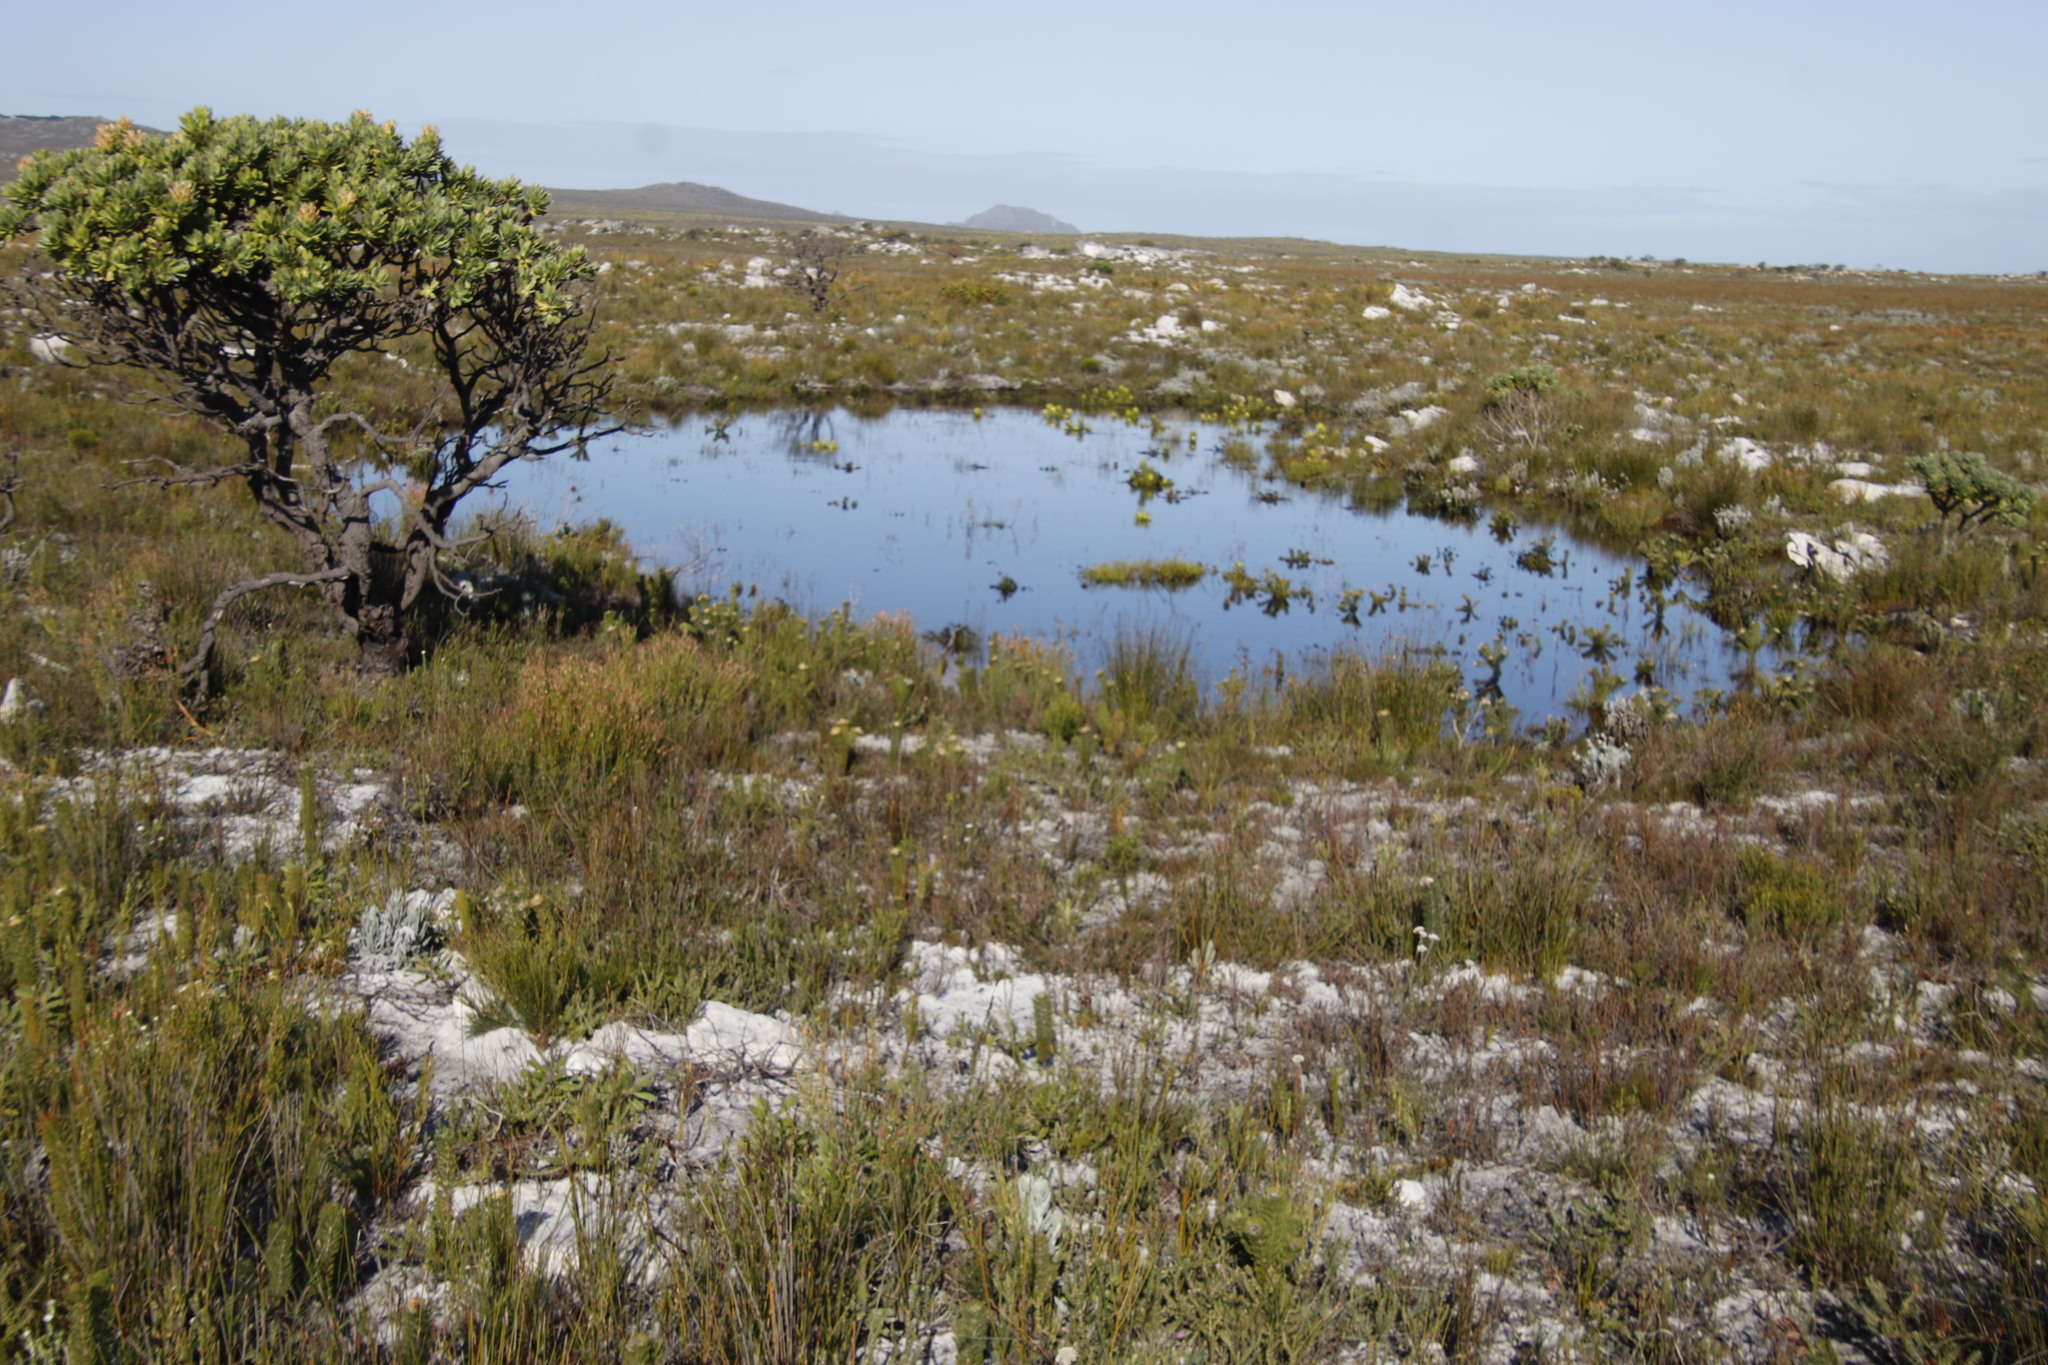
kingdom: Plantae
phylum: Tracheophyta
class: Magnoliopsida
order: Proteales
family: Proteaceae
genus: Leucadendron
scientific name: Leucadendron laureolum
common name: Golden sunshinebush
